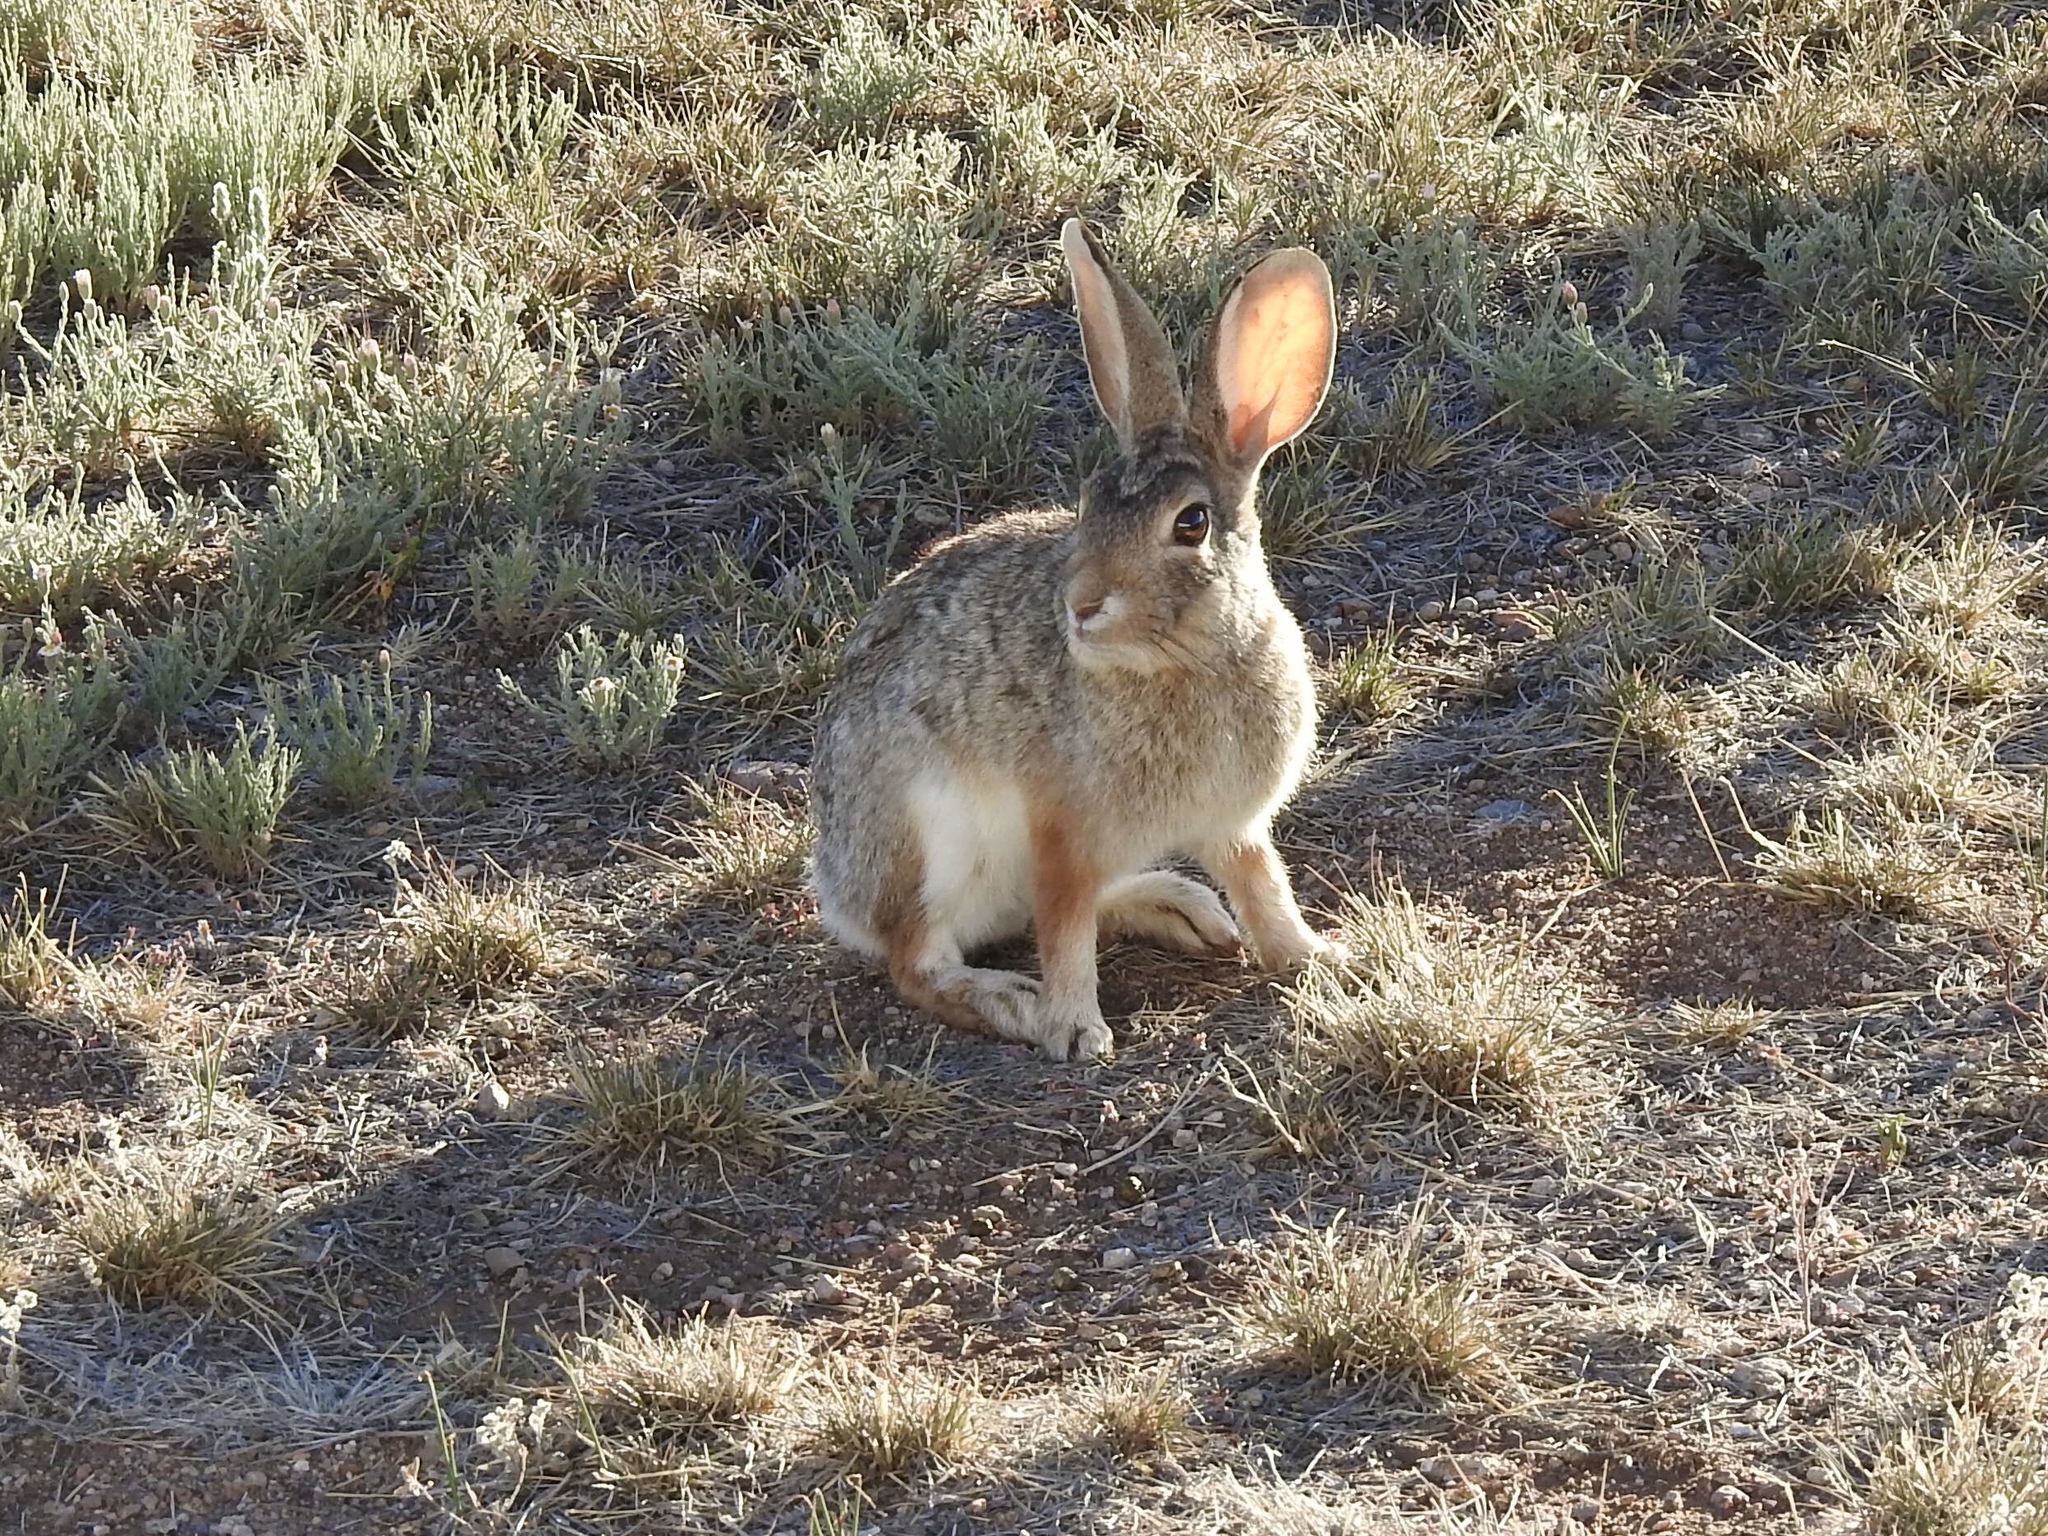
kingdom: Animalia
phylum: Chordata
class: Mammalia
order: Lagomorpha
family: Leporidae
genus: Sylvilagus
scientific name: Sylvilagus audubonii
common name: Desert cottontail
